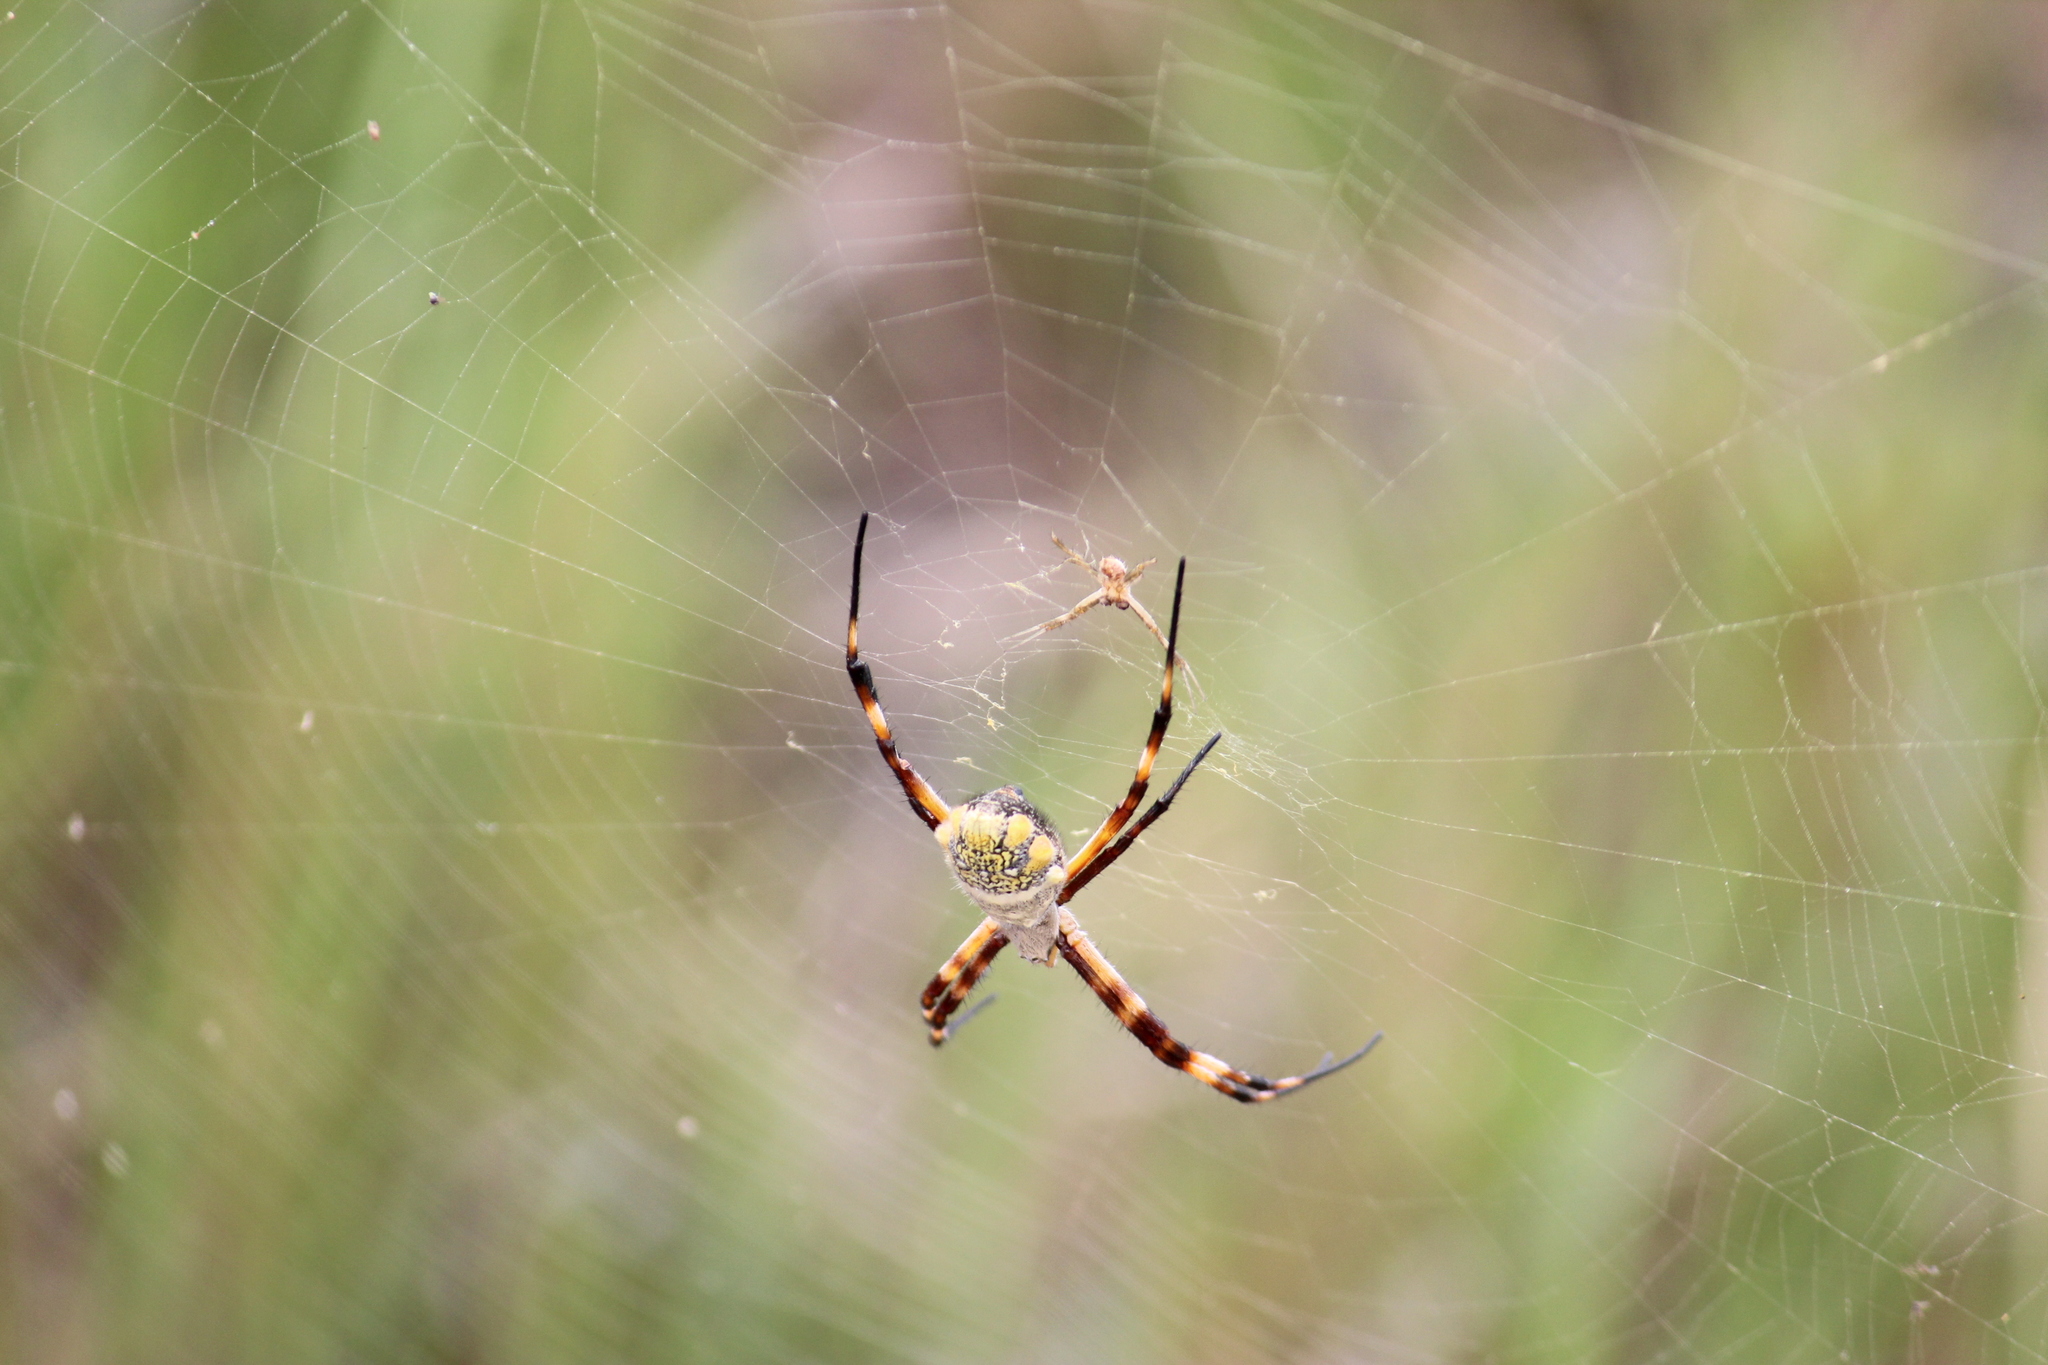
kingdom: Animalia
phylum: Arthropoda
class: Arachnida
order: Araneae
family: Araneidae
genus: Argiope
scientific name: Argiope argentata
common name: Orb weavers
